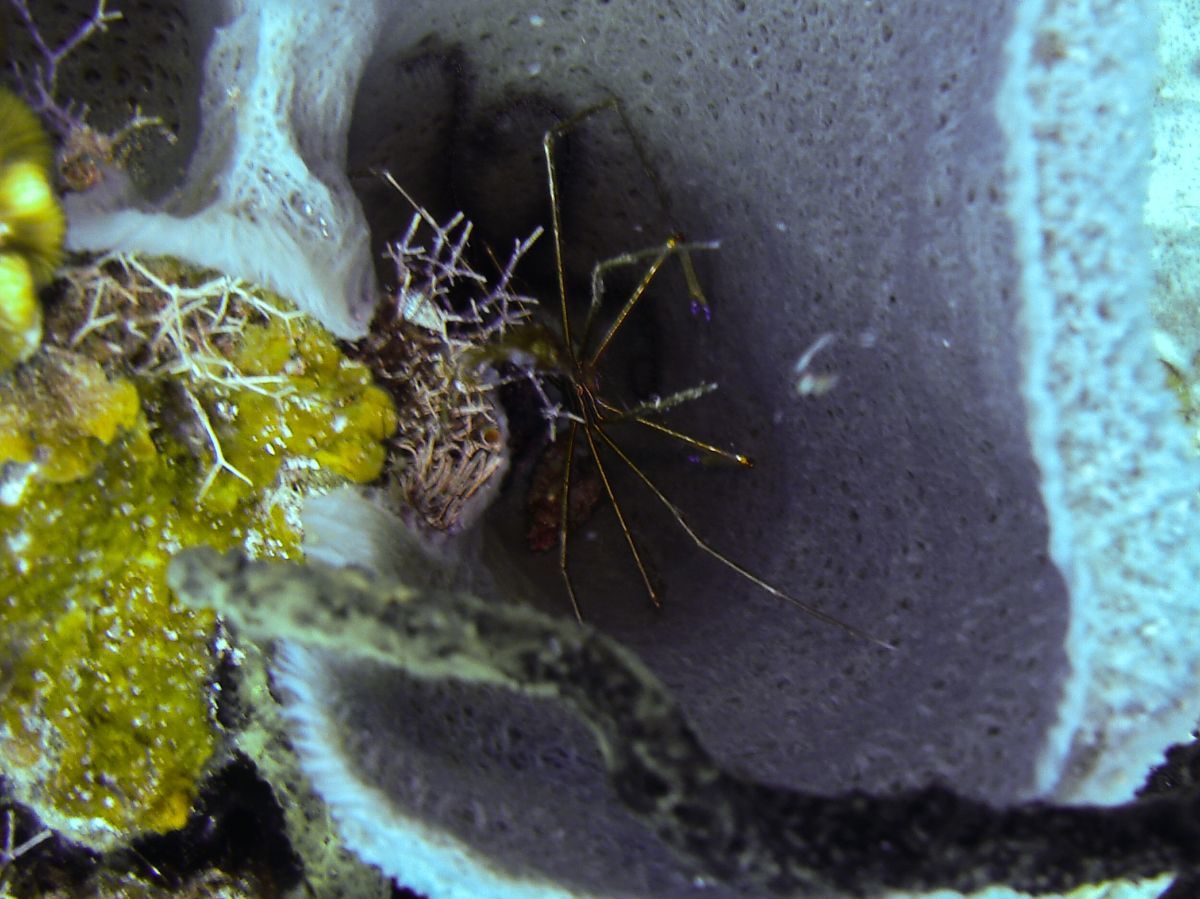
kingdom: Animalia
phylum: Arthropoda
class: Malacostraca
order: Decapoda
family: Inachoididae
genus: Stenorhynchus
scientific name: Stenorhynchus seticornis
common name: Arrow crab
